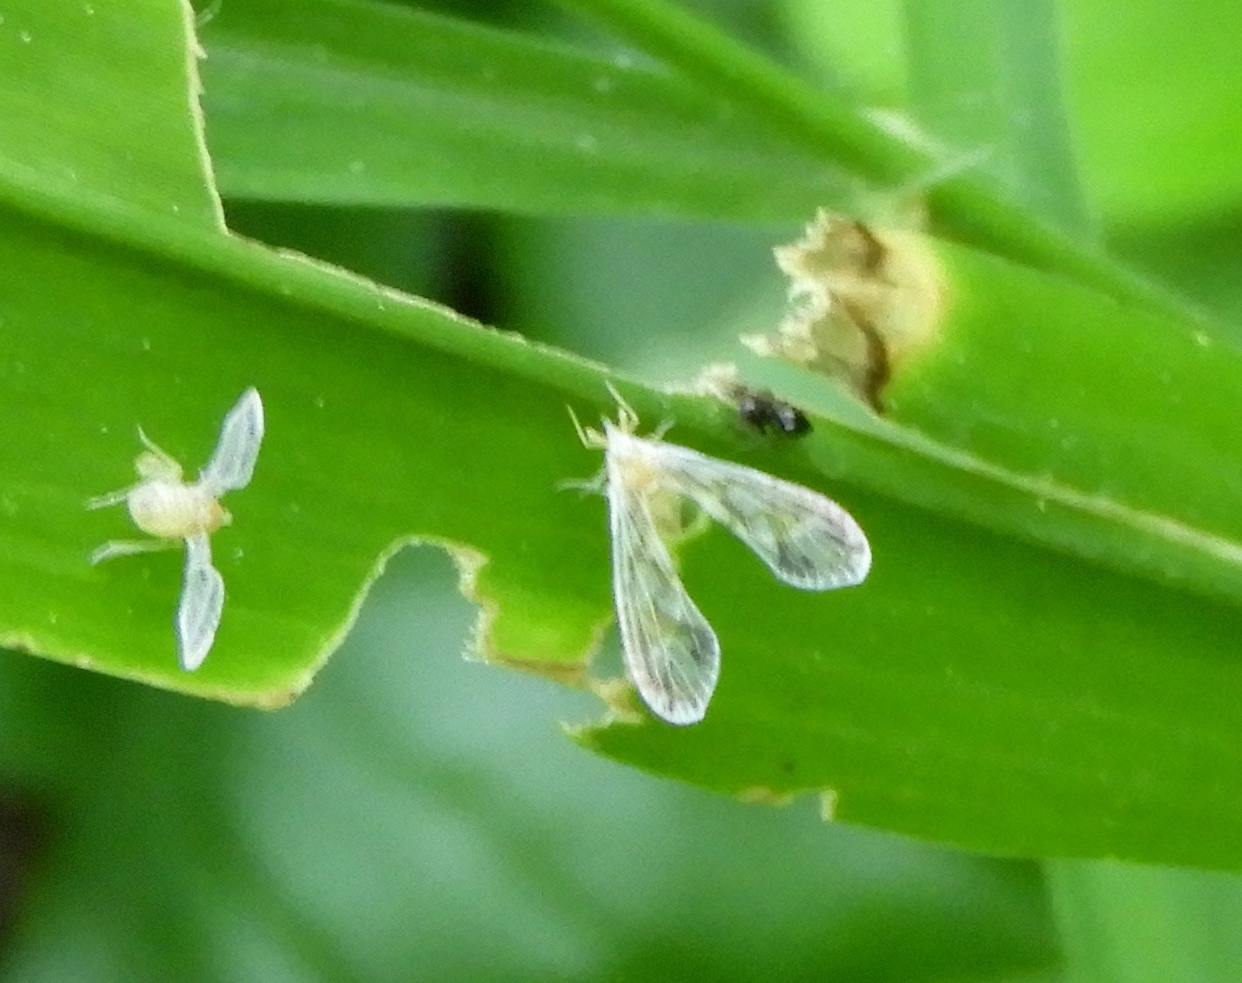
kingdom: Animalia
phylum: Arthropoda
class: Insecta
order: Hemiptera
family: Derbidae
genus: Anotia
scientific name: Anotia
